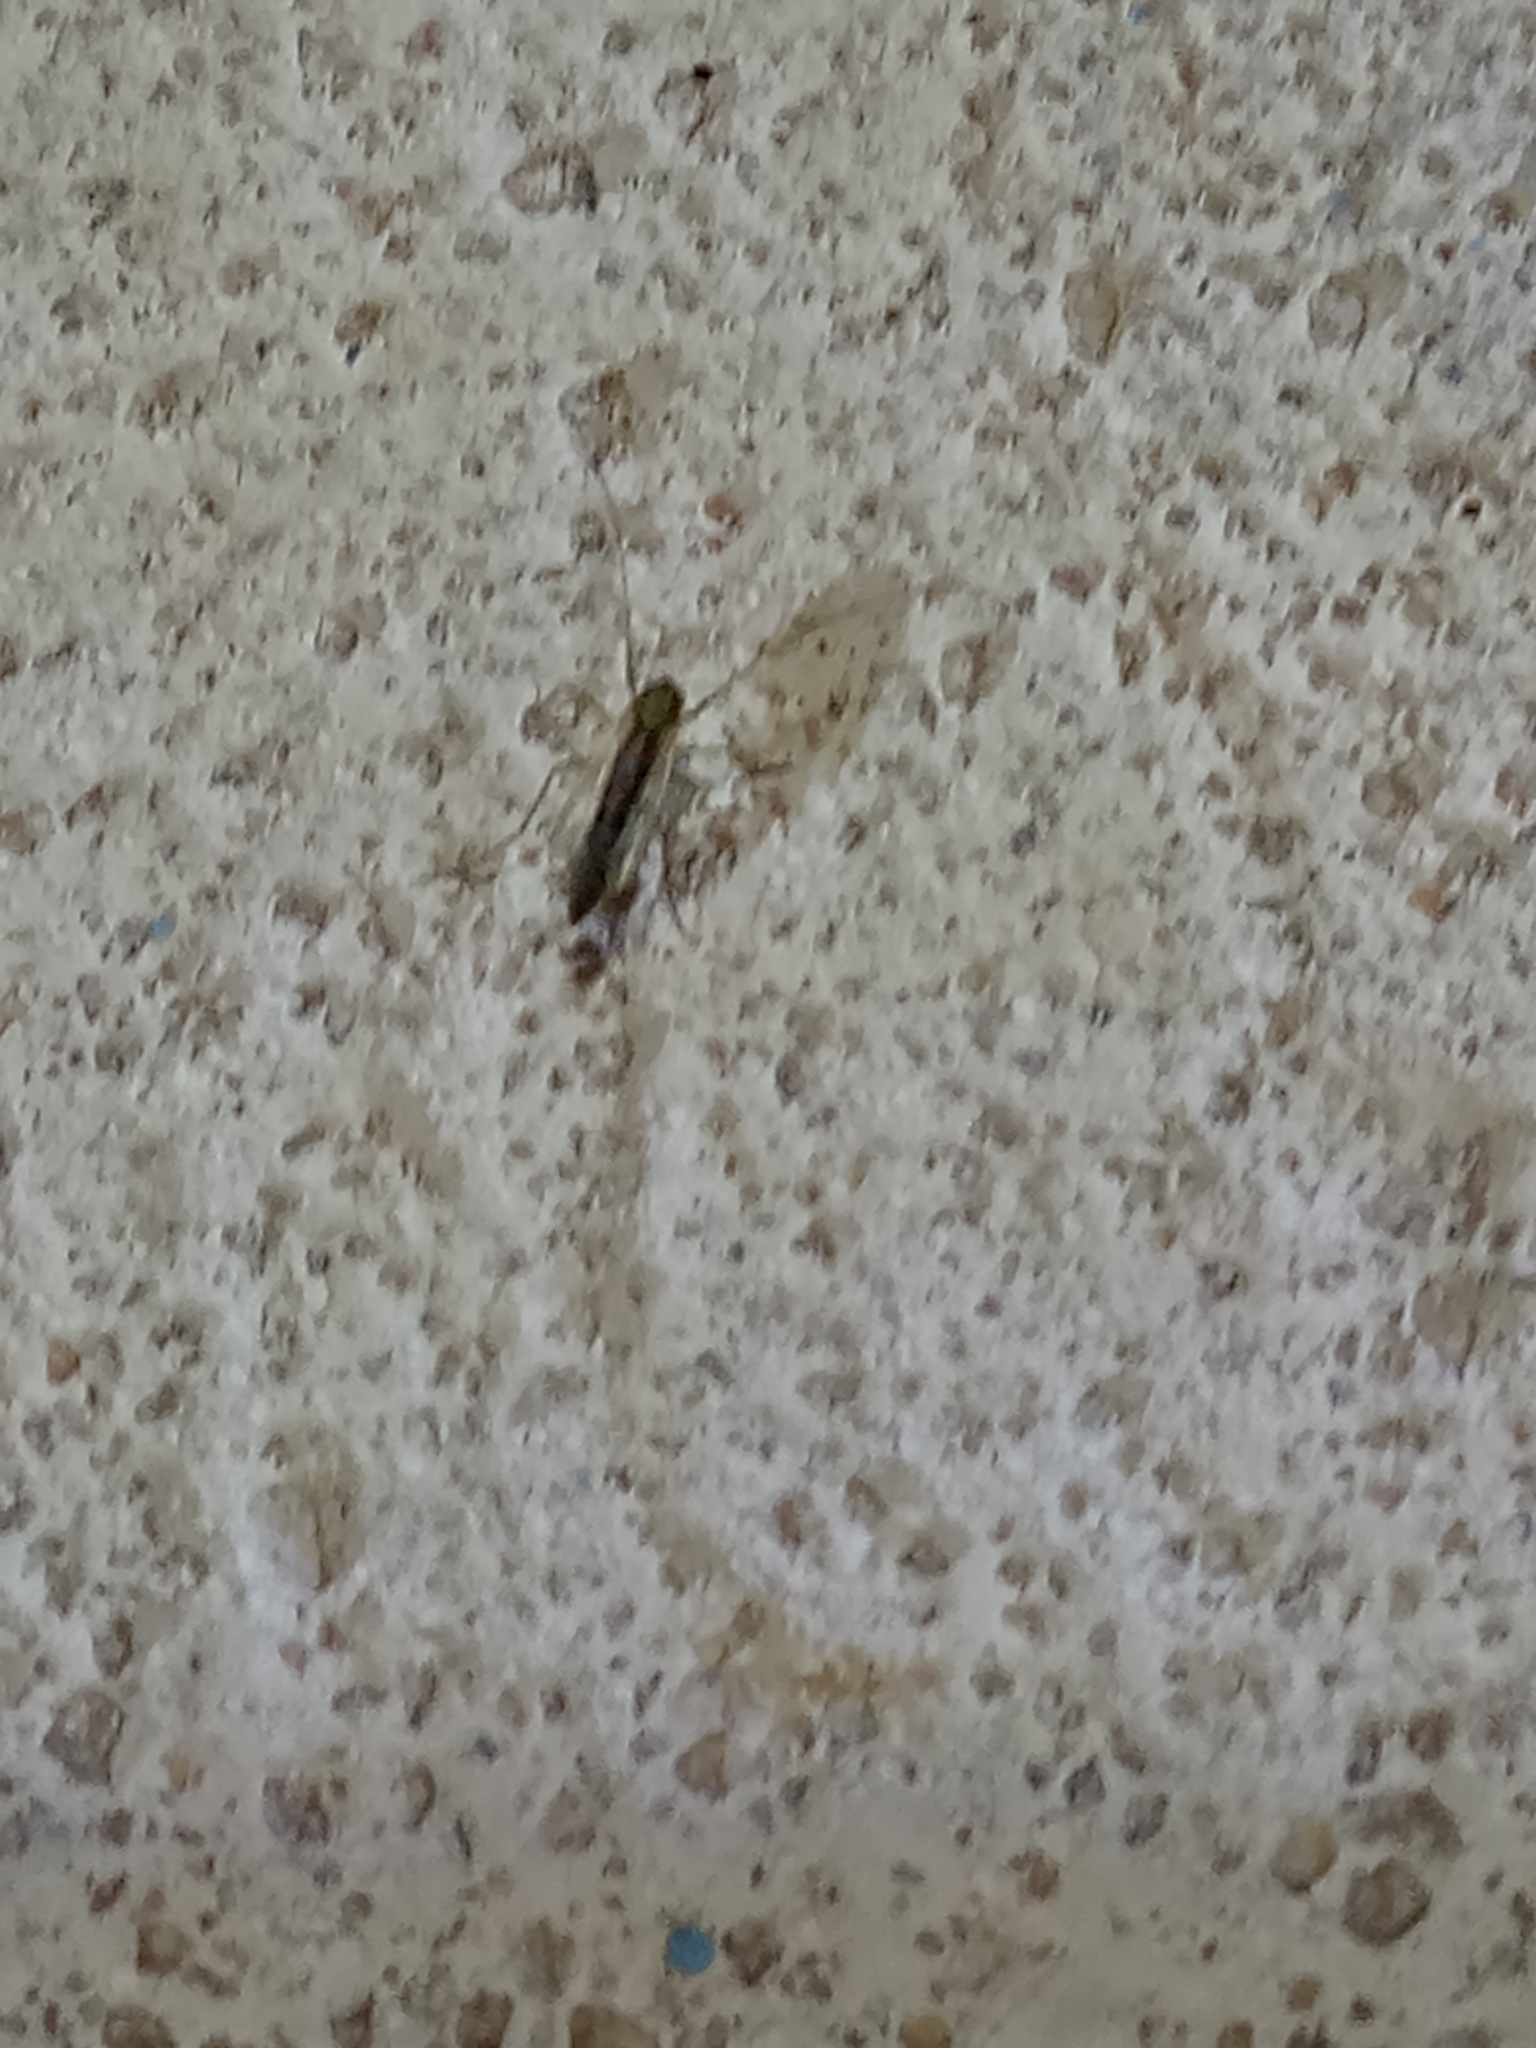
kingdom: Animalia
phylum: Arthropoda
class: Insecta
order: Diptera
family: Chironomidae
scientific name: Chironomidae
